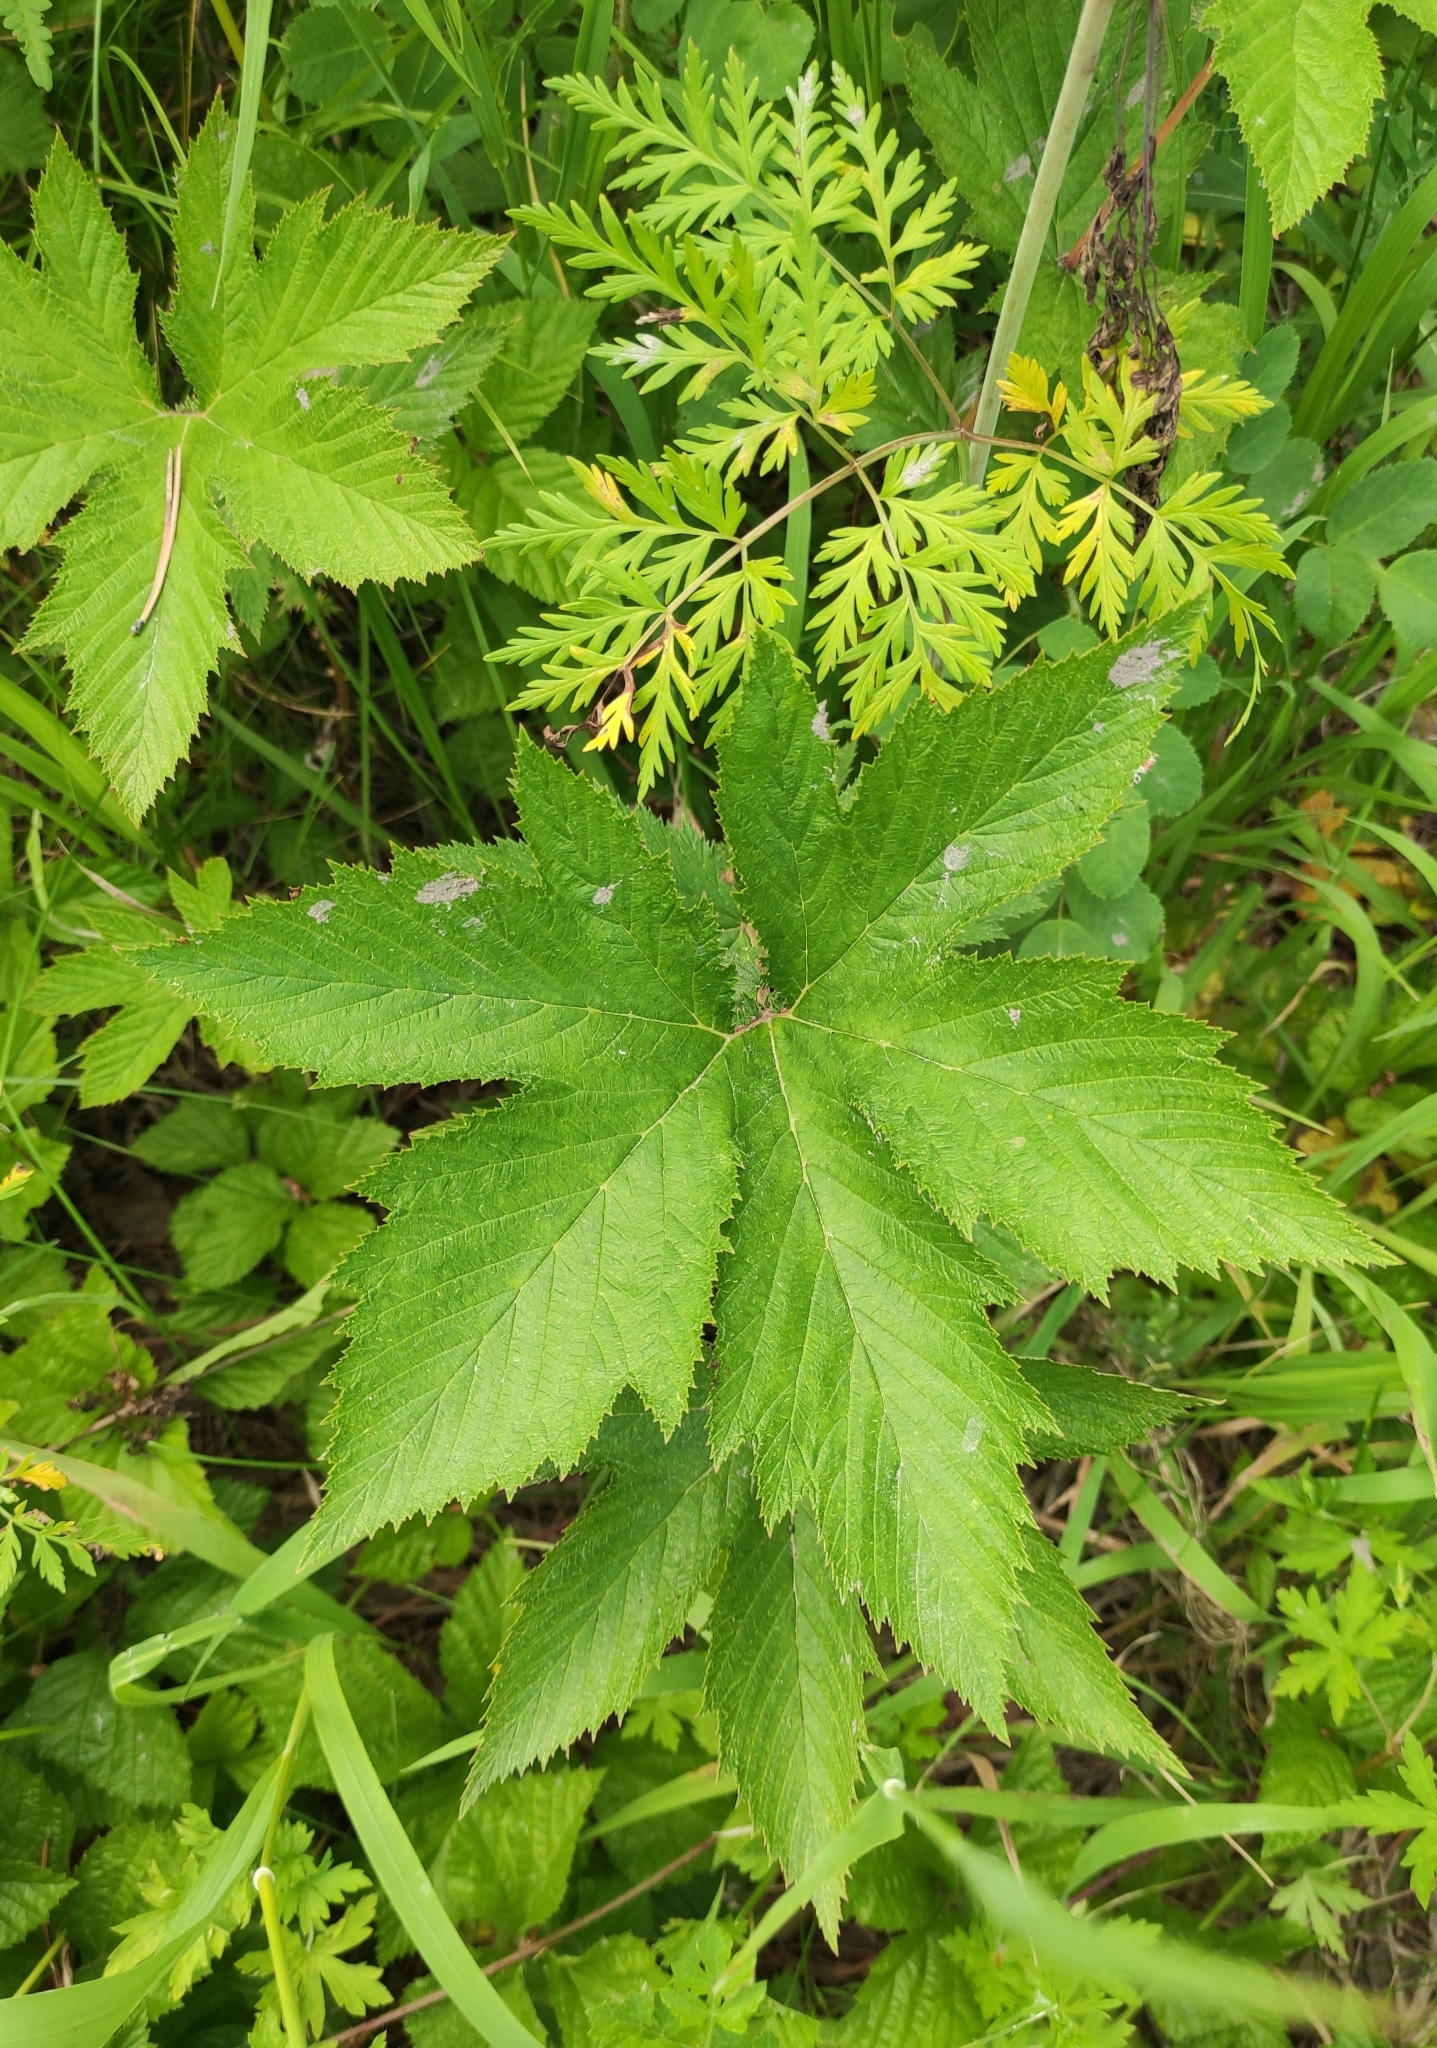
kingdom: Plantae
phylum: Tracheophyta
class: Magnoliopsida
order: Rosales
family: Rosaceae
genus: Filipendula
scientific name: Filipendula digitata
